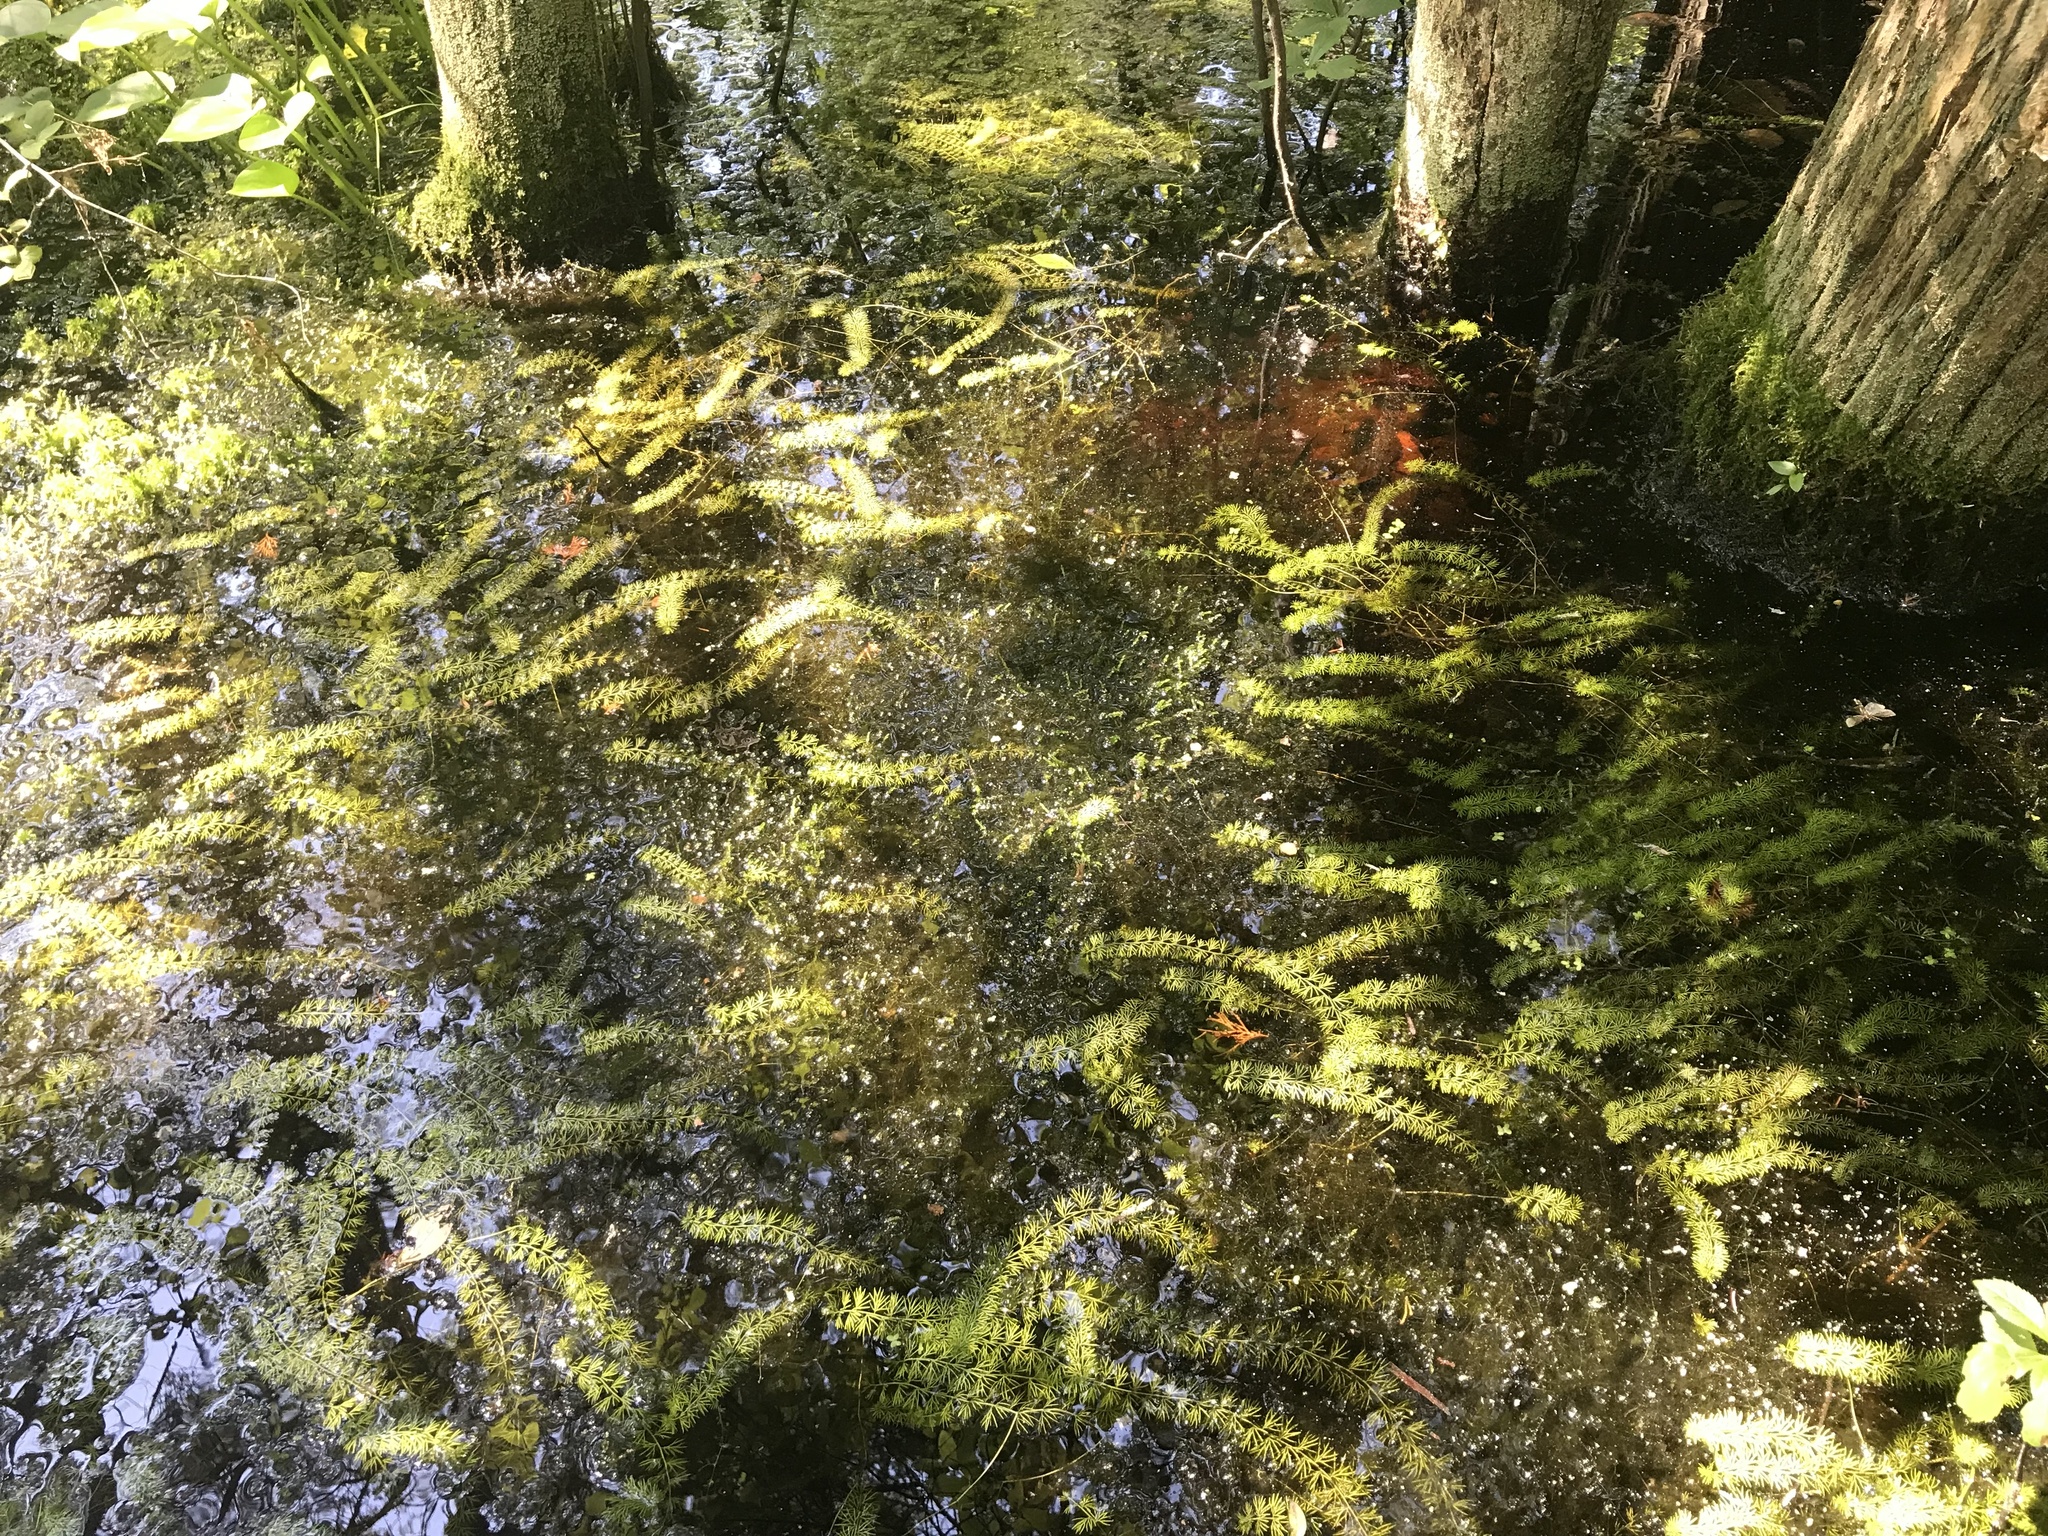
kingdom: Plantae
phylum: Tracheophyta
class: Magnoliopsida
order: Lamiales
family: Lentibulariaceae
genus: Utricularia
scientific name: Utricularia intermedia
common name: Intermediate bladderwort
